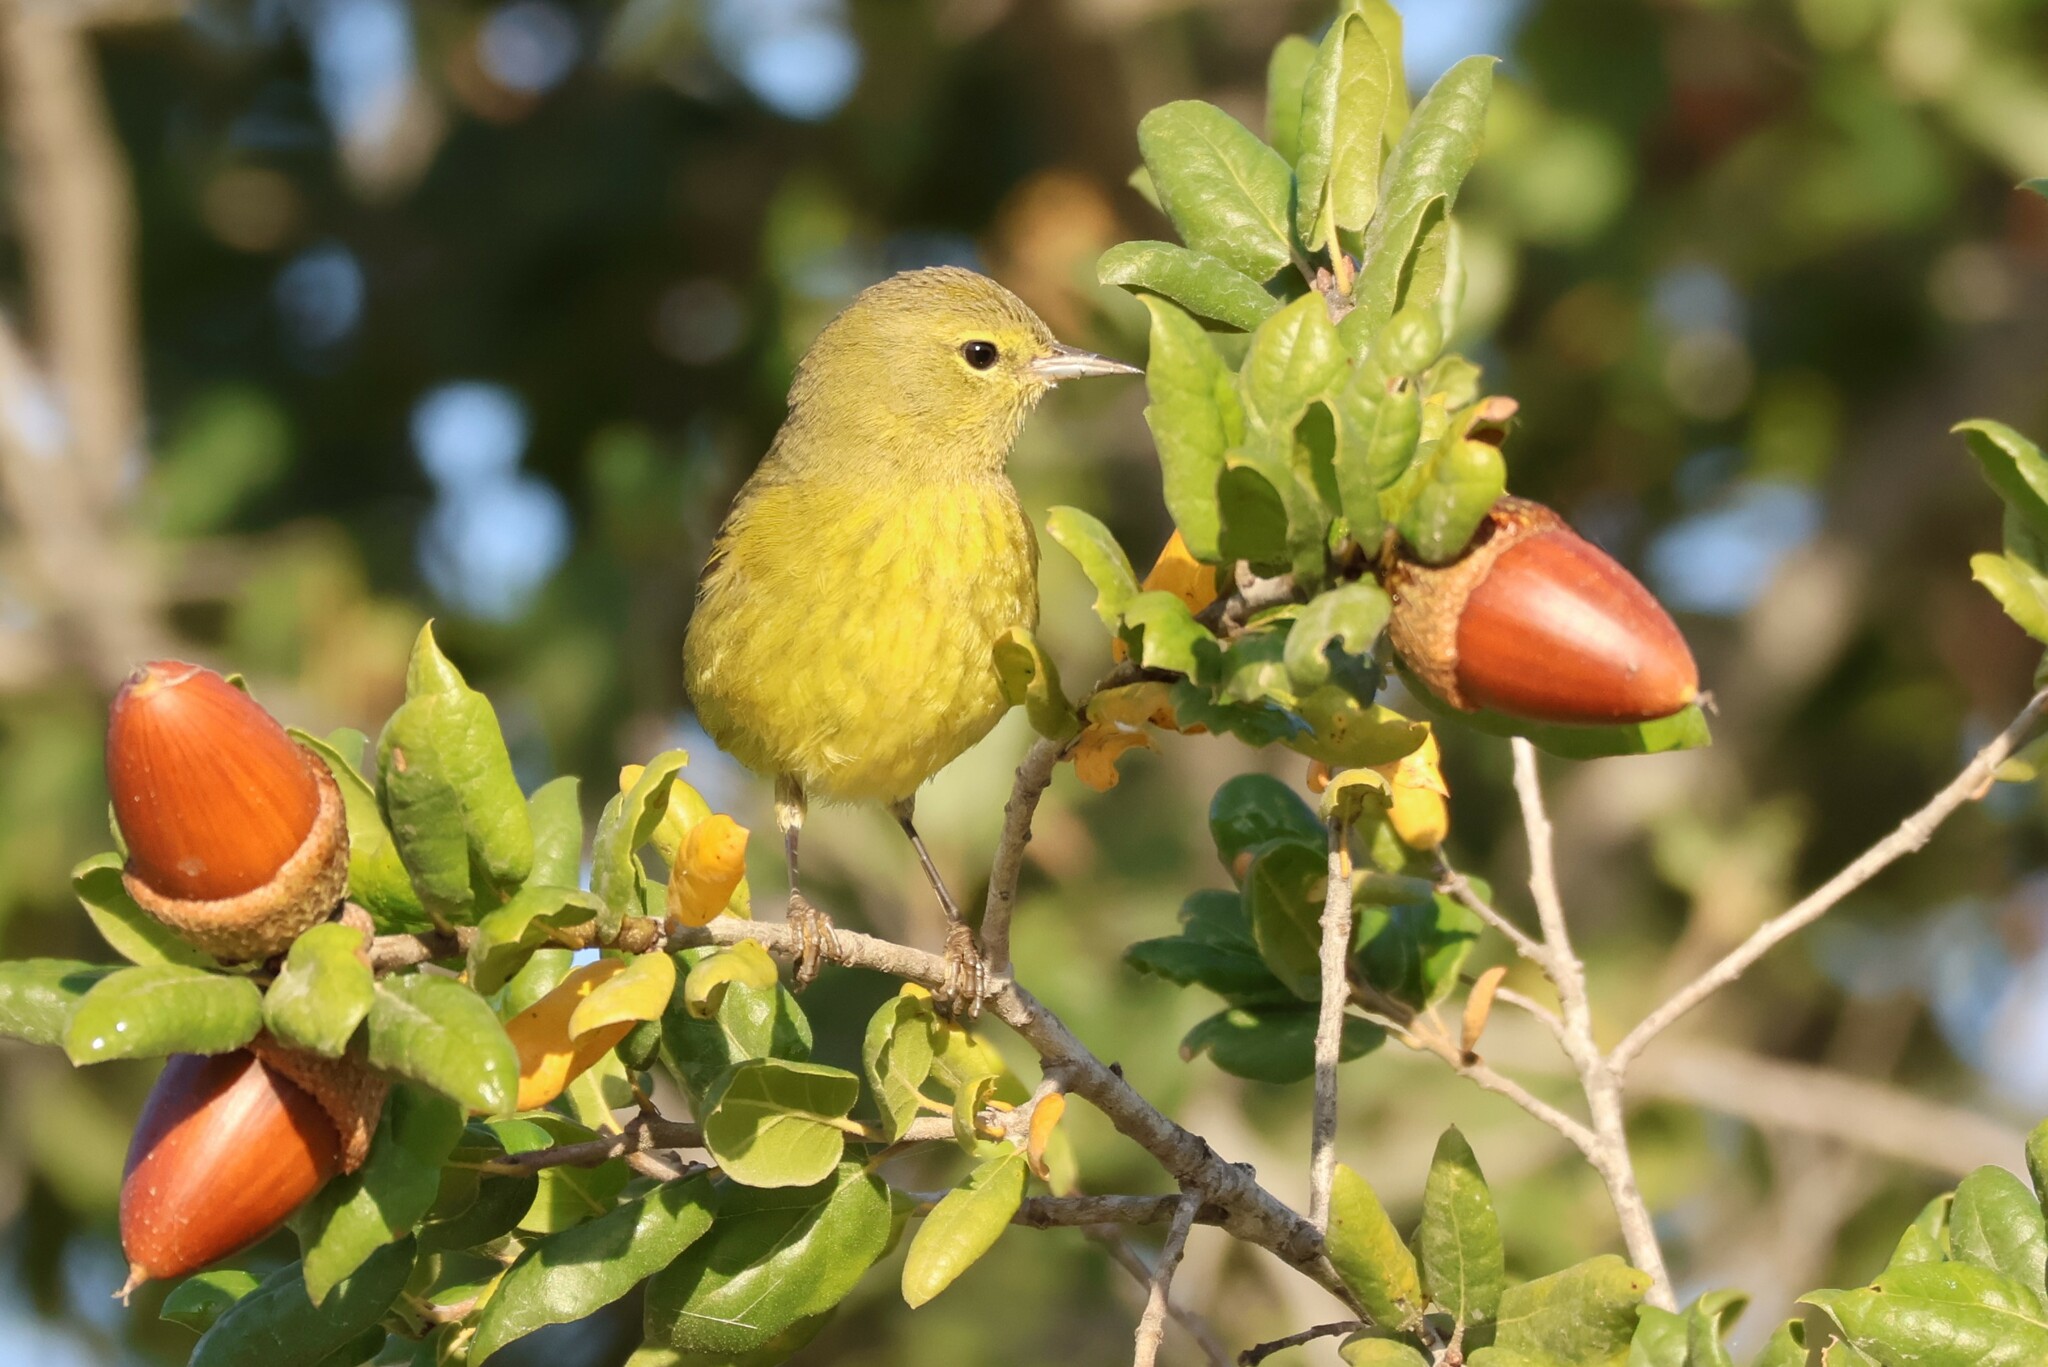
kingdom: Animalia
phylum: Chordata
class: Aves
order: Passeriformes
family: Parulidae
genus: Leiothlypis
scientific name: Leiothlypis celata
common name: Orange-crowned warbler
